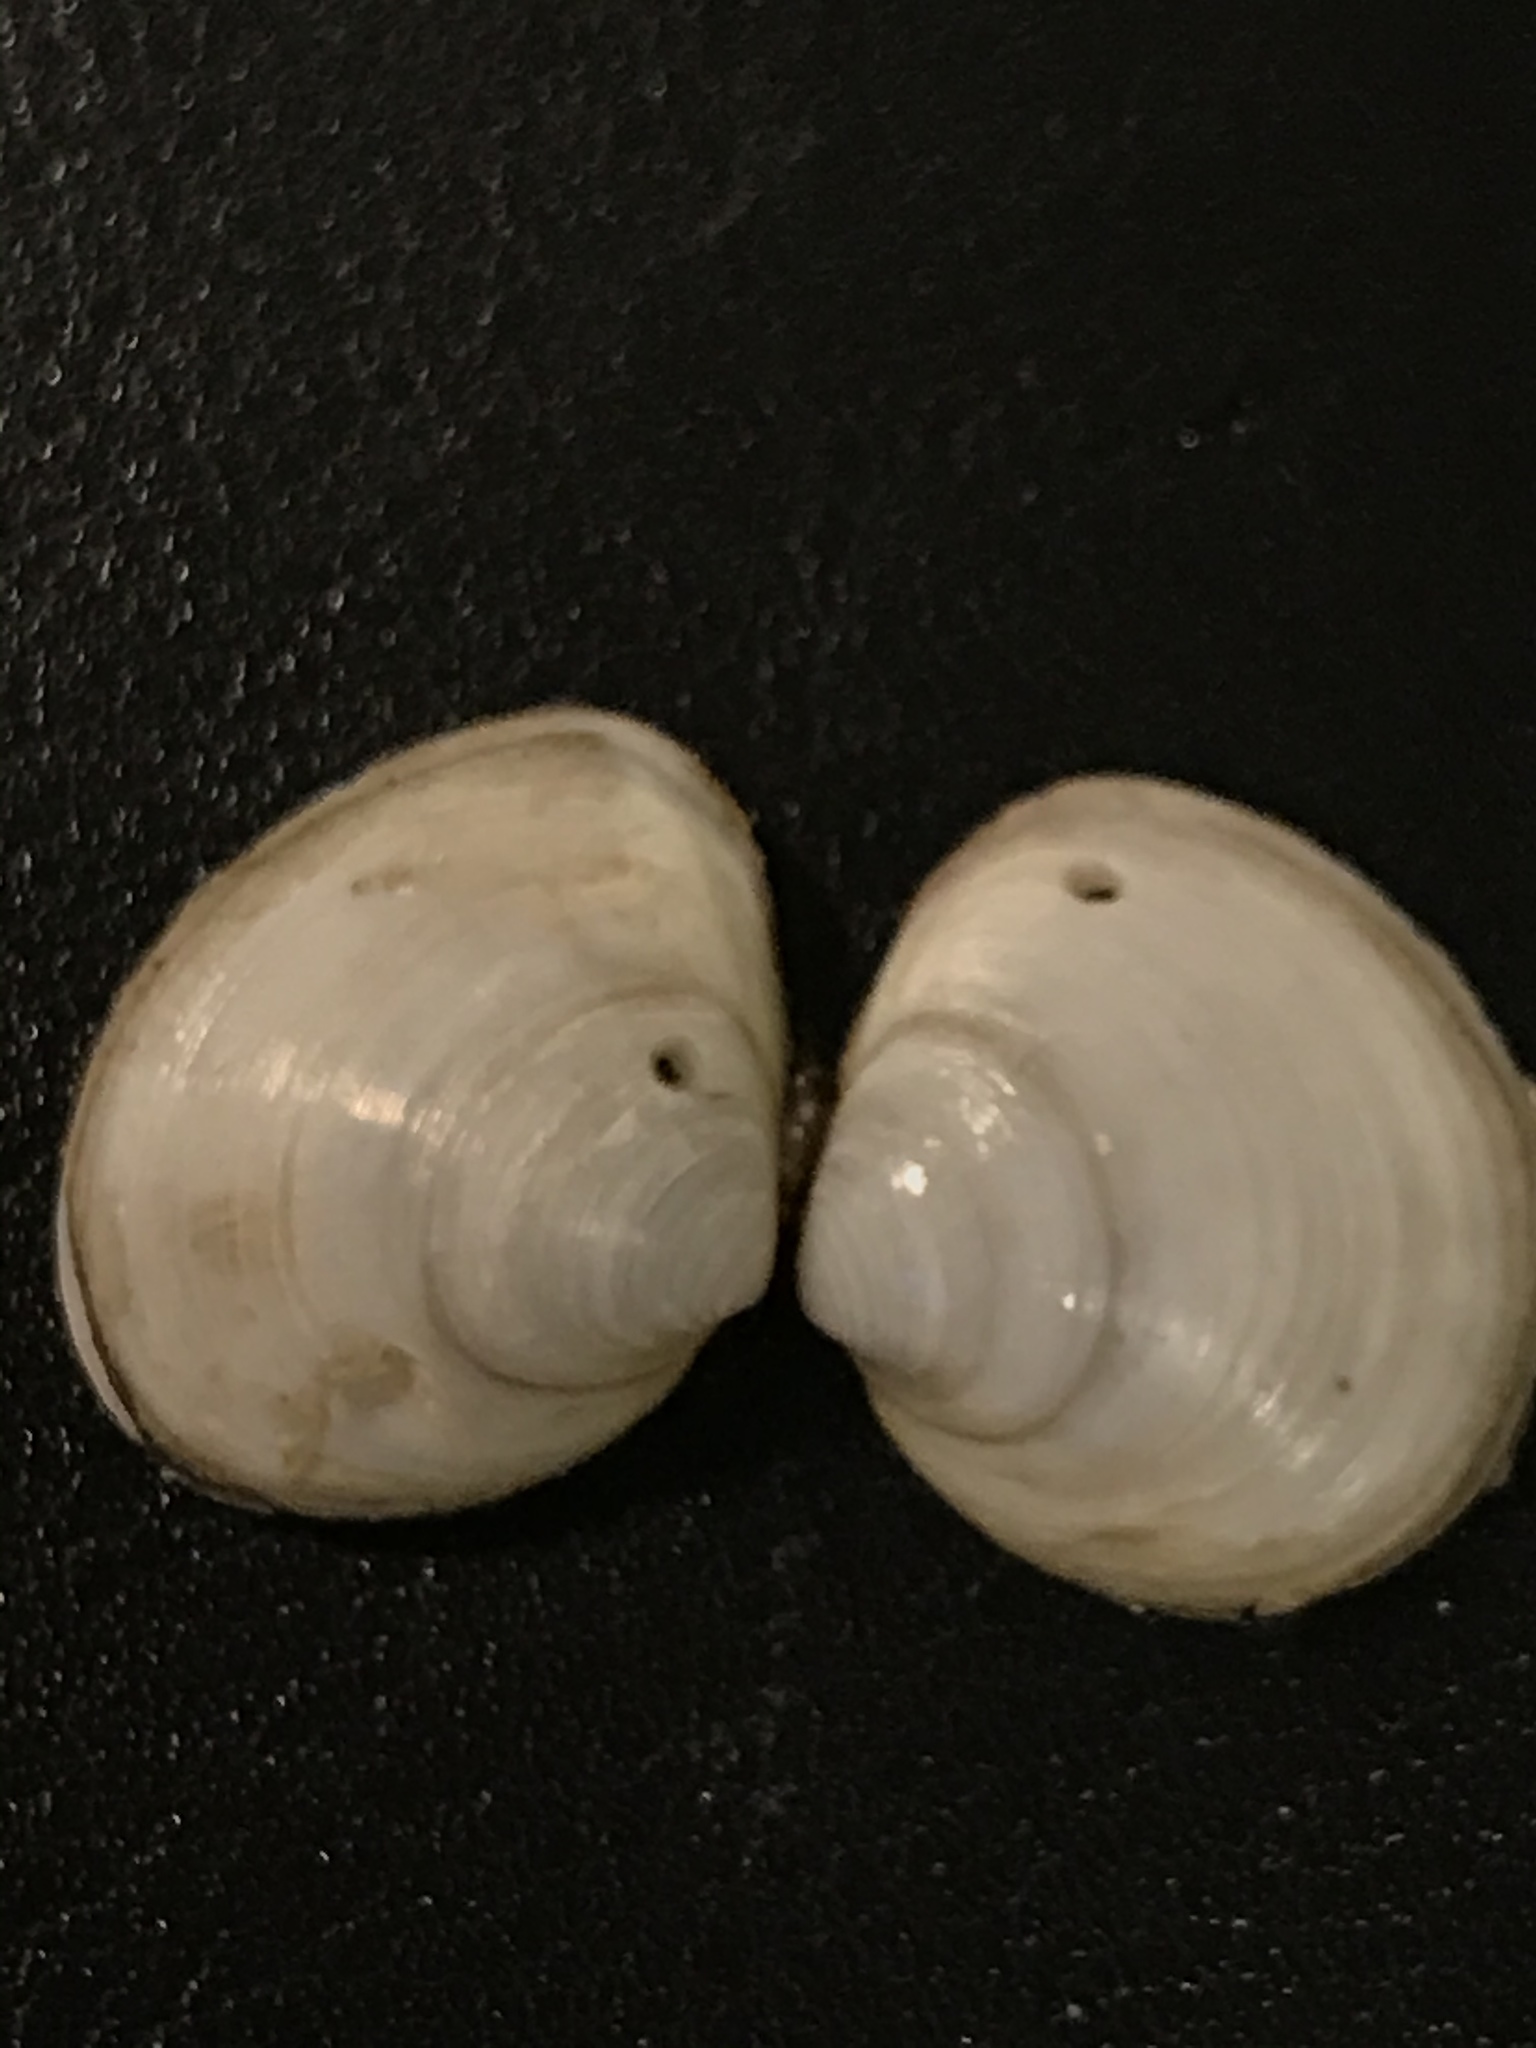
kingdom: Animalia
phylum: Mollusca
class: Bivalvia
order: Cardiida
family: Tellinidae
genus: Macoma
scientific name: Macoma petalum
